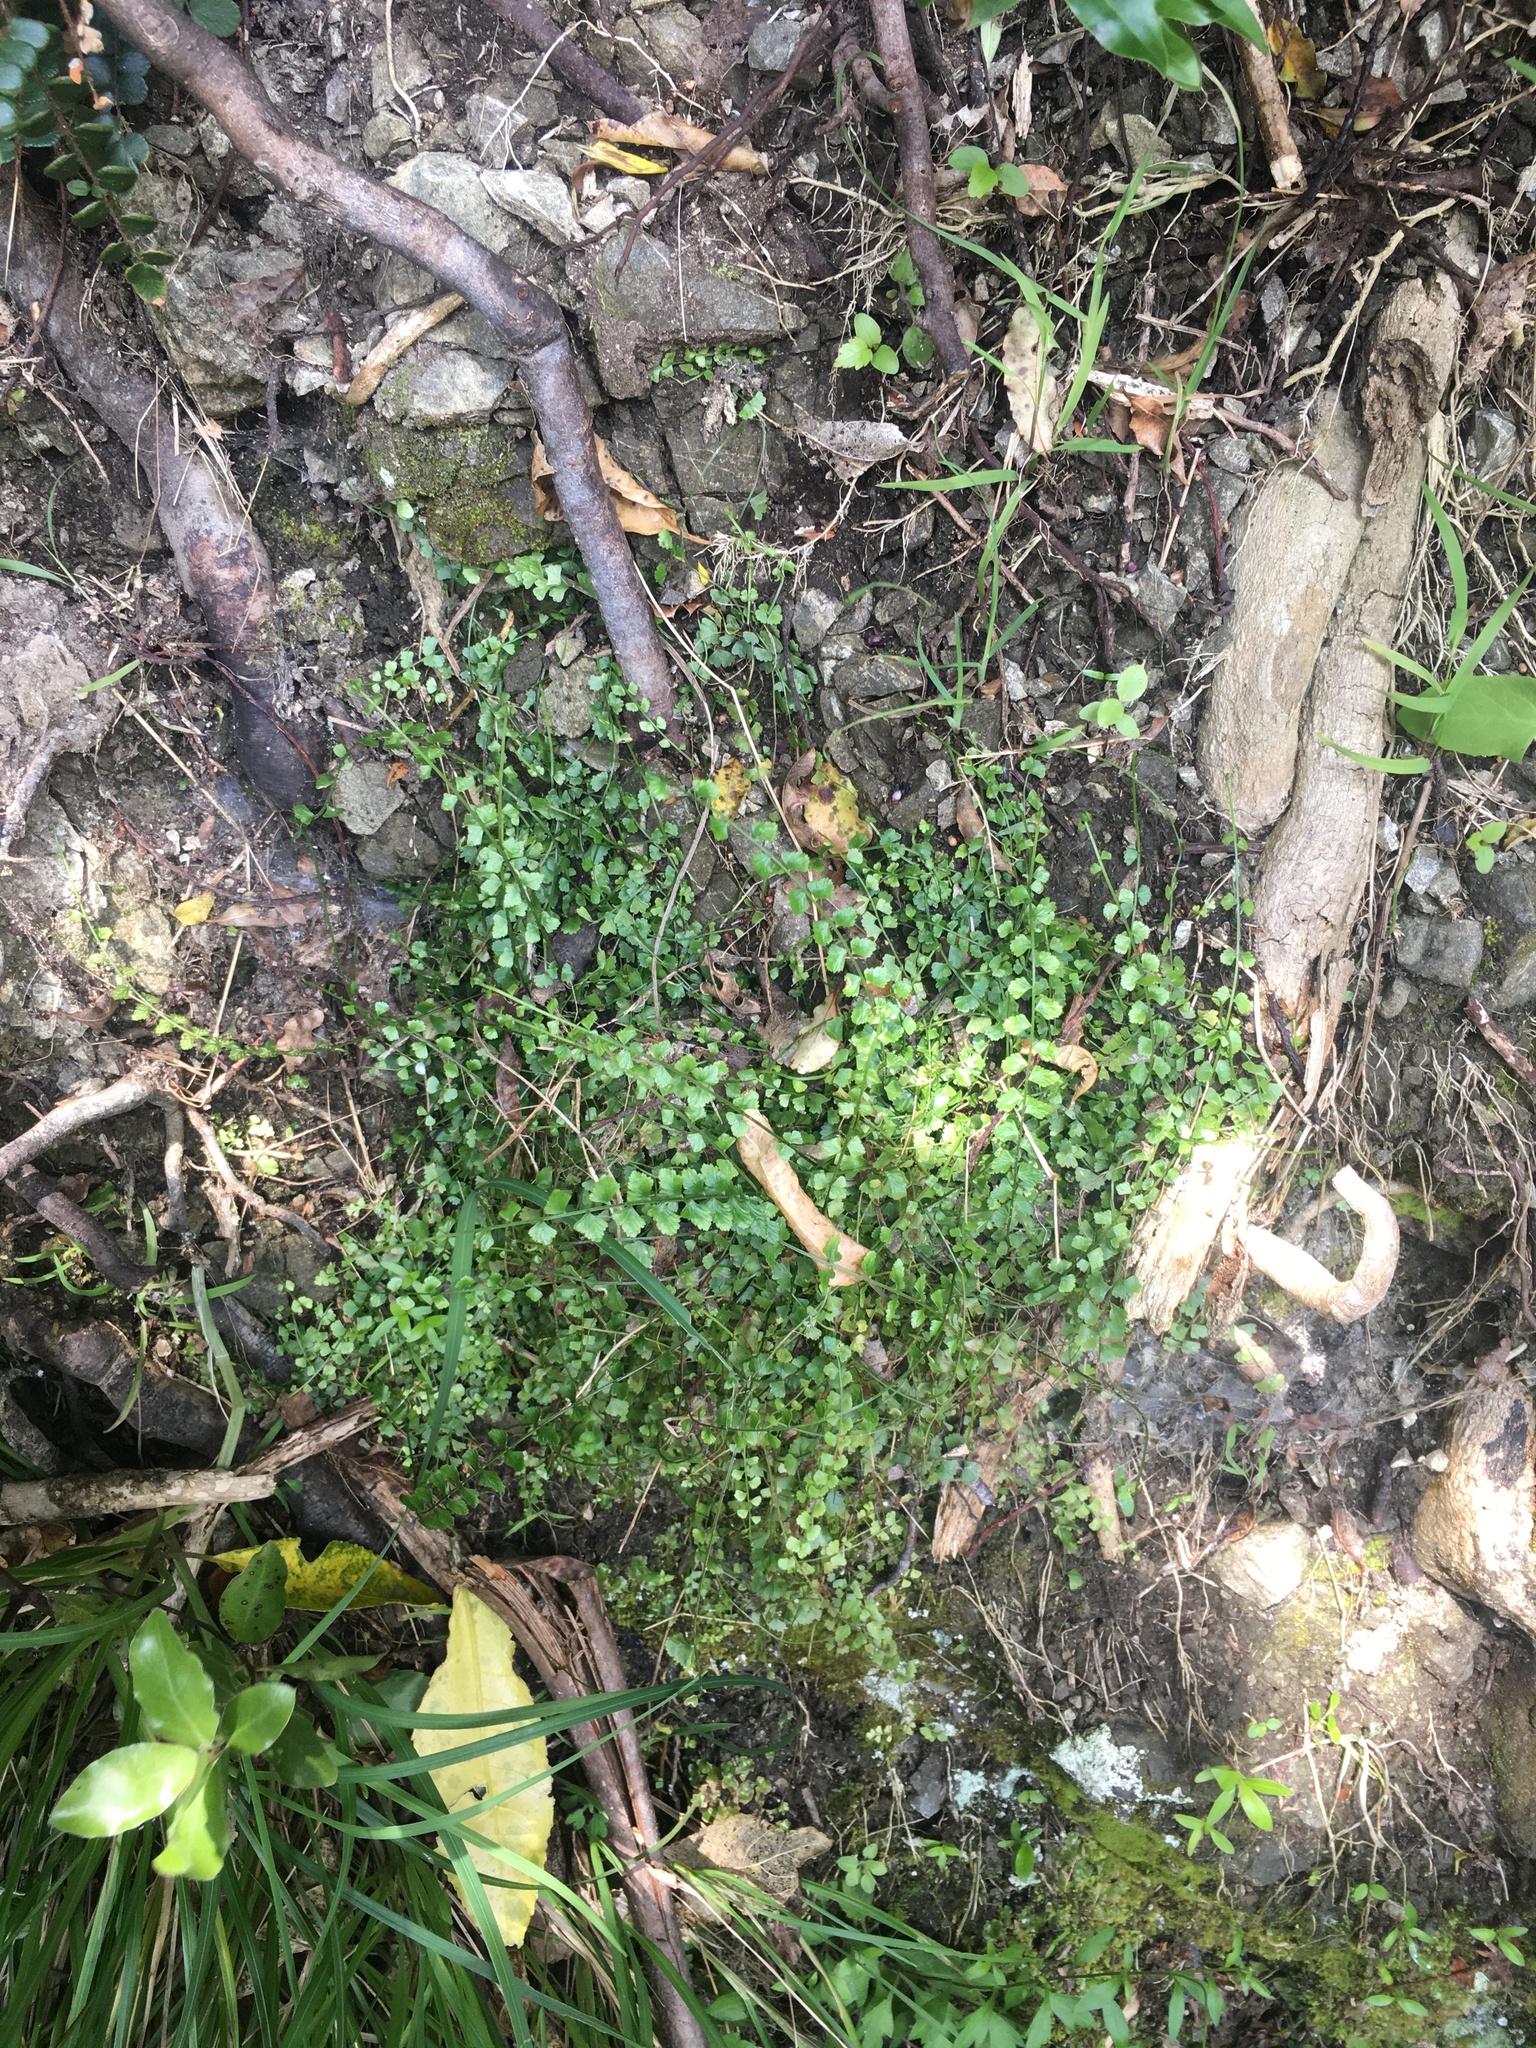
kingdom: Plantae
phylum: Tracheophyta
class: Polypodiopsida
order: Polypodiales
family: Aspleniaceae
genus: Asplenium
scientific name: Asplenium flabellifolium
